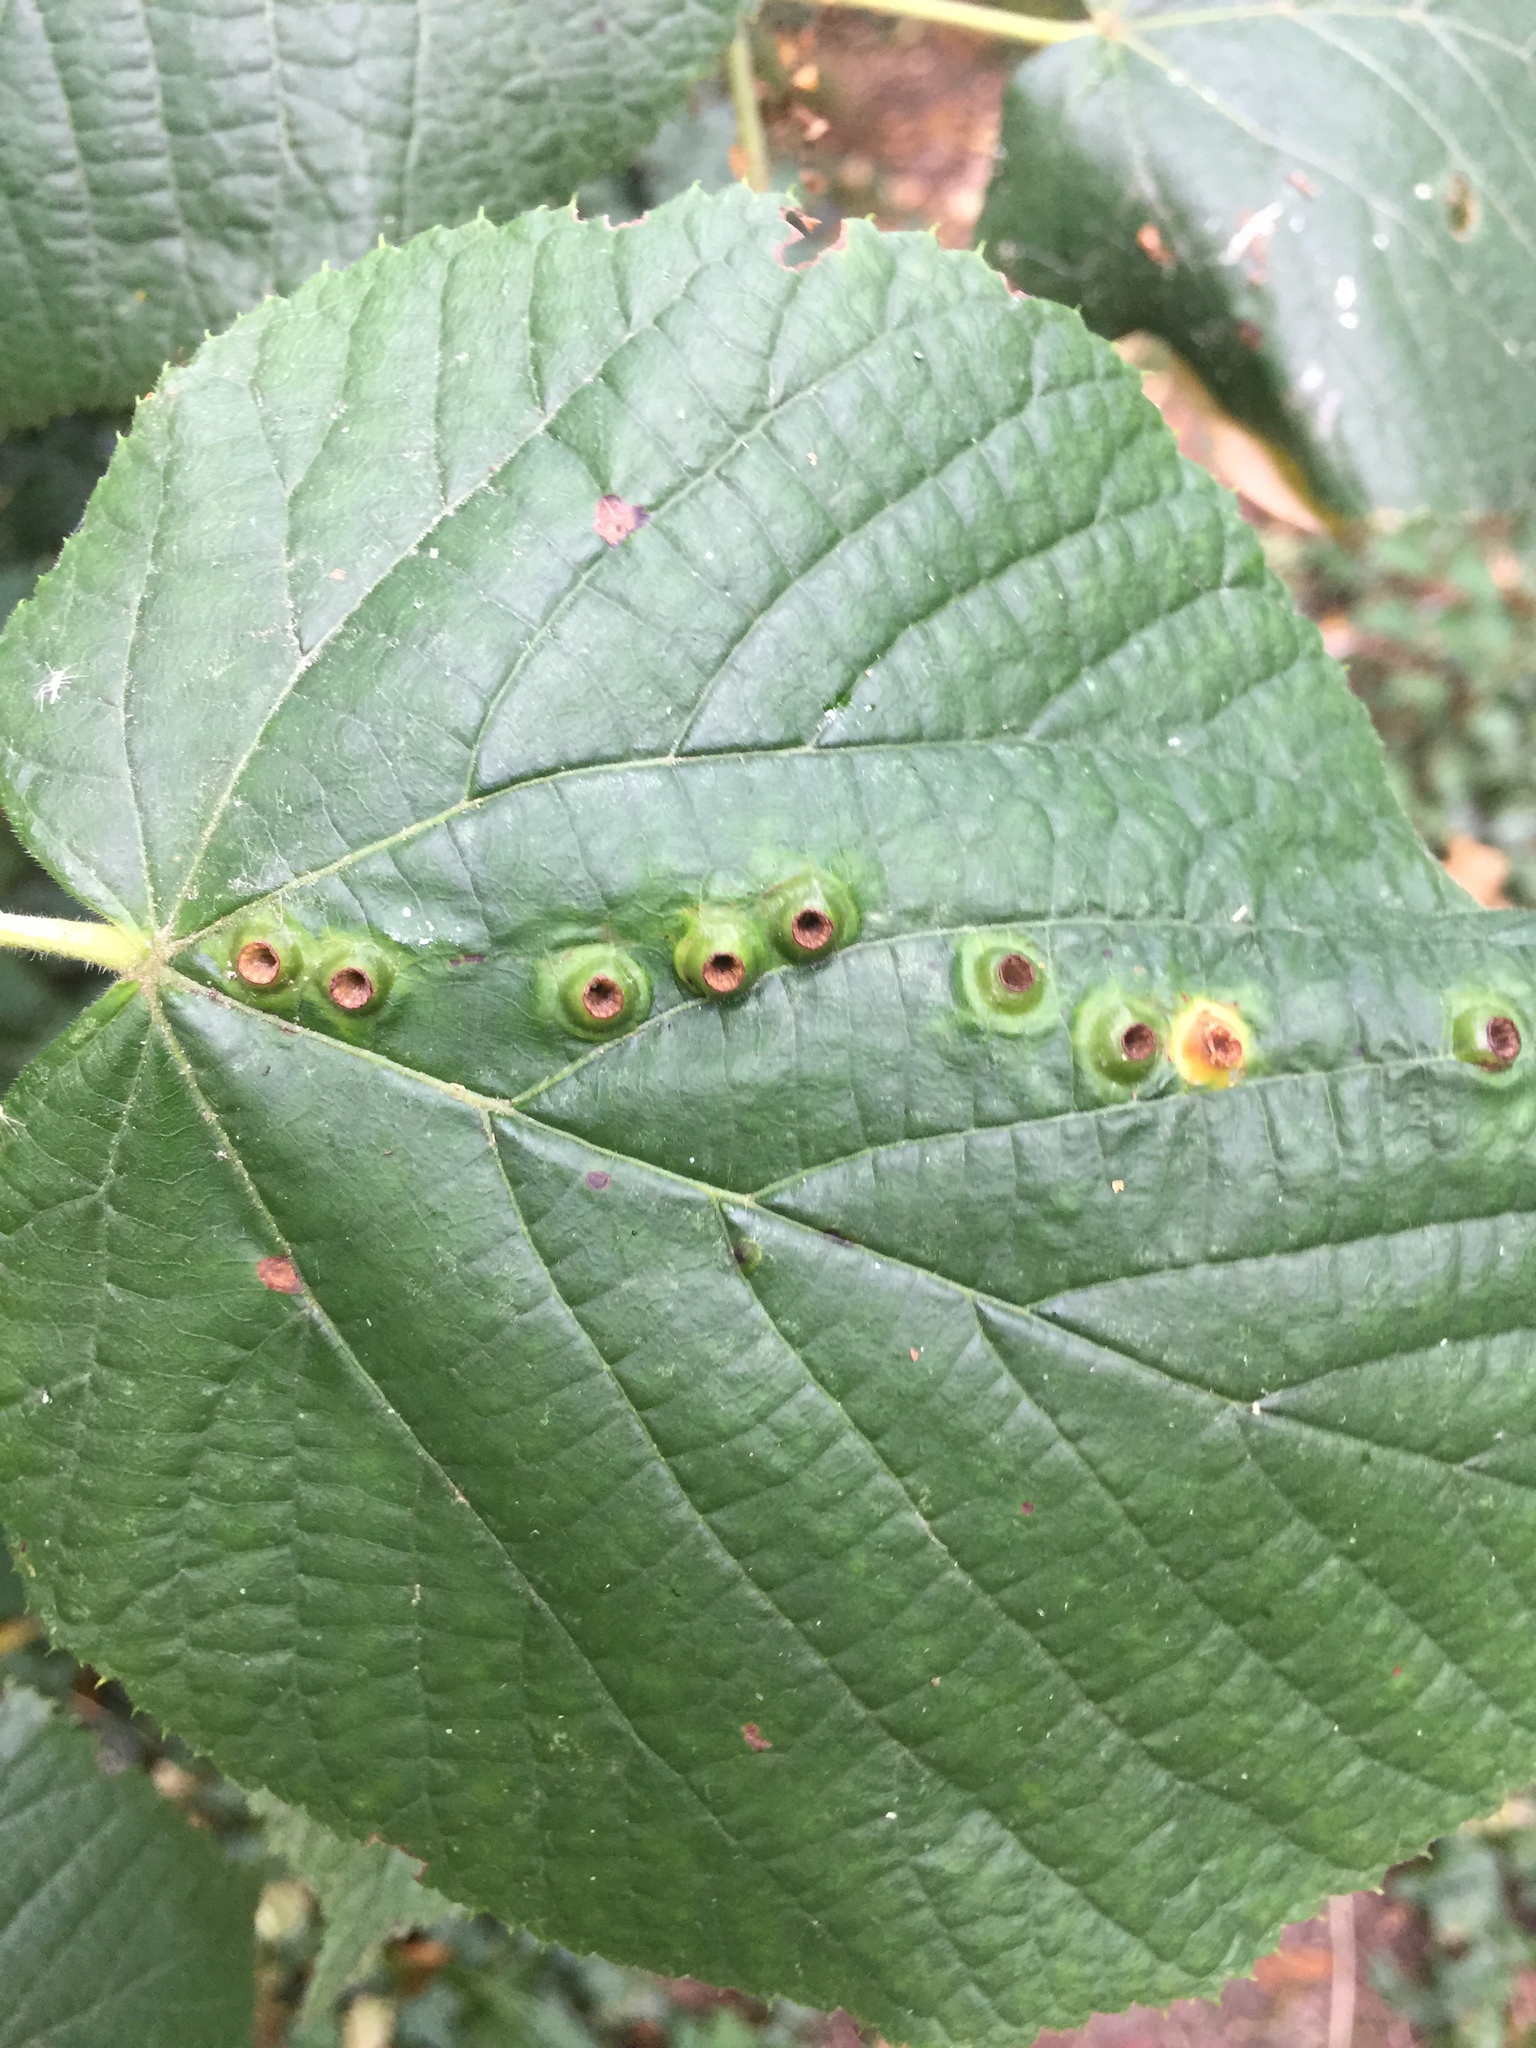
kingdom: Animalia
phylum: Arthropoda
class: Insecta
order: Diptera
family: Cecidomyiidae
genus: Didymomyia
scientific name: Didymomyia tiliacea
